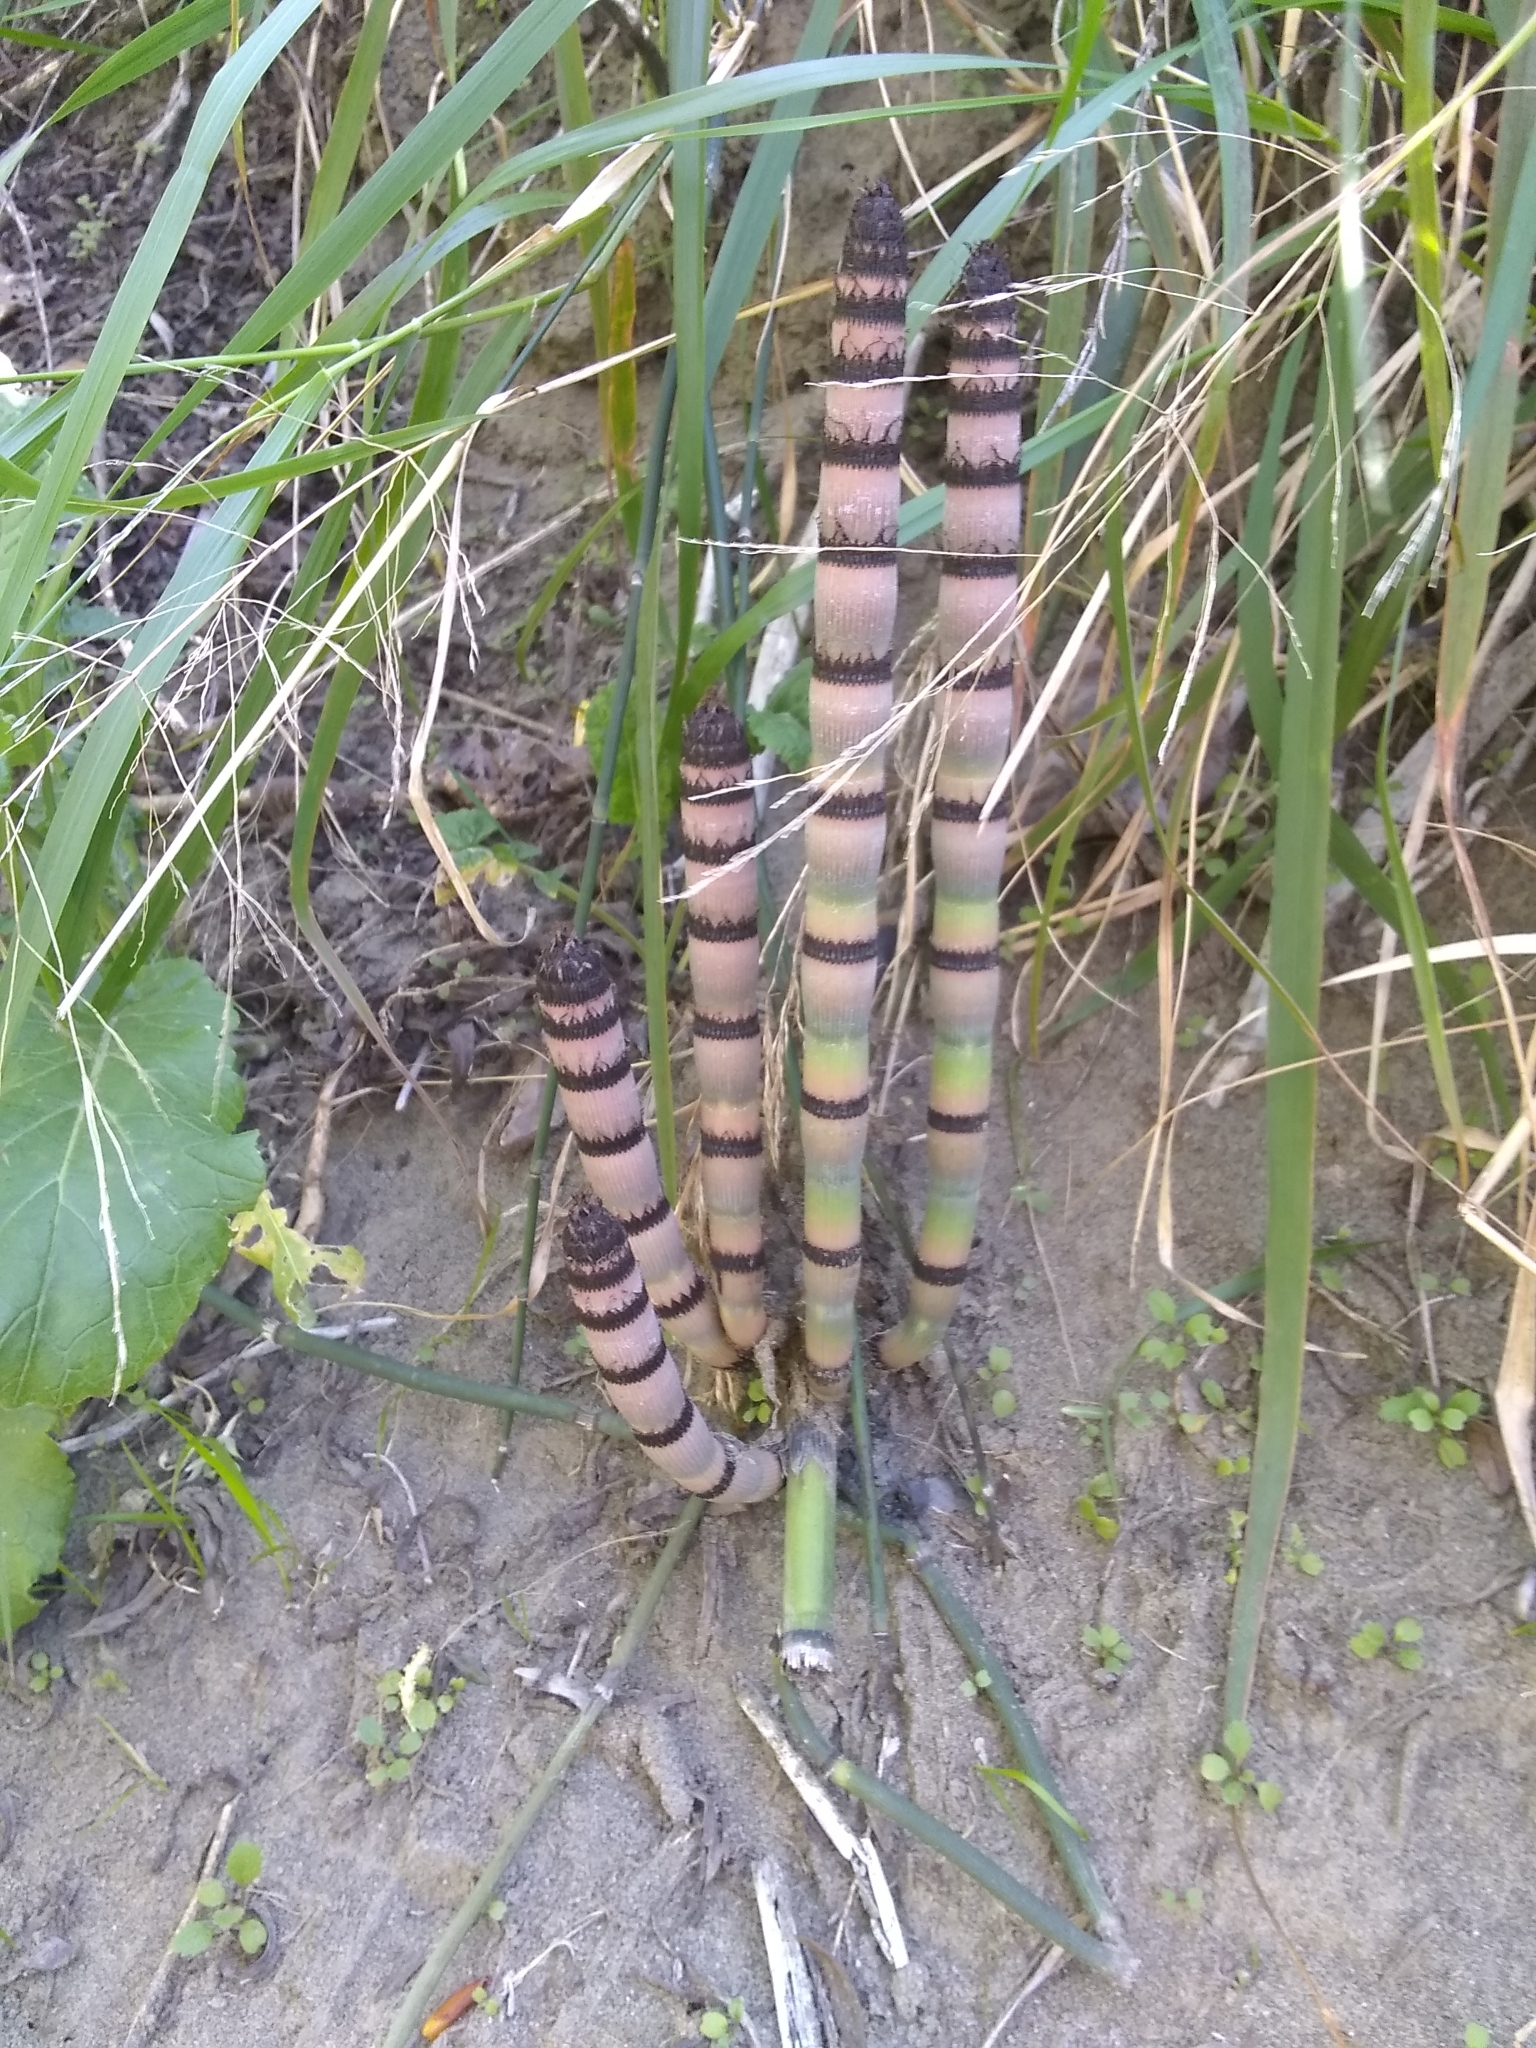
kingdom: Plantae
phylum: Tracheophyta
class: Polypodiopsida
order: Equisetales
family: Equisetaceae
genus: Equisetum
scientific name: Equisetum praealtum
